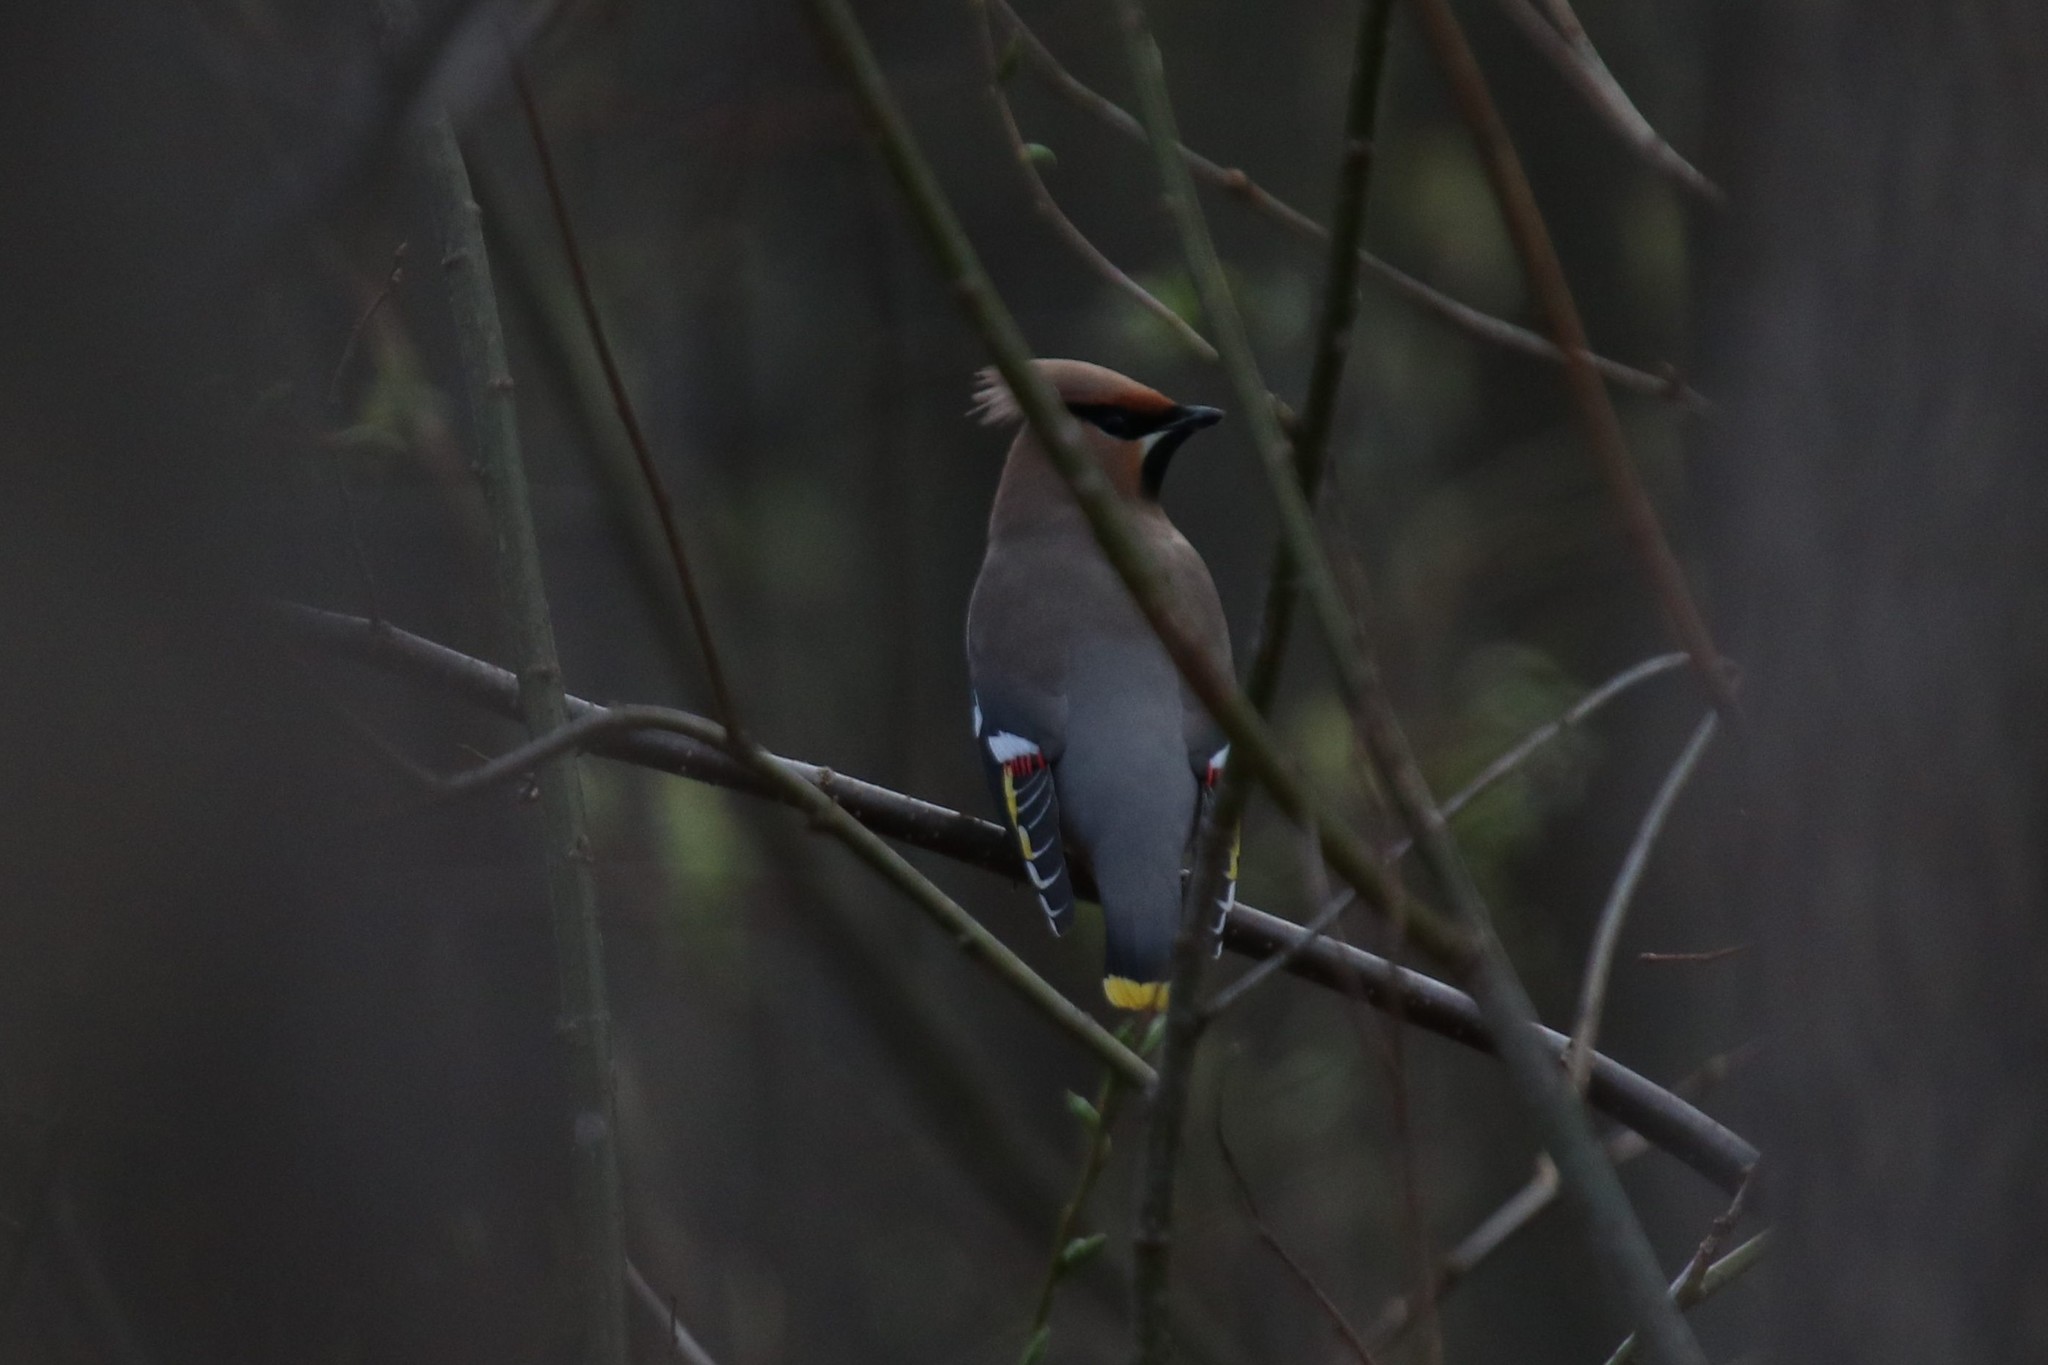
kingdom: Animalia
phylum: Chordata
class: Aves
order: Passeriformes
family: Bombycillidae
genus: Bombycilla
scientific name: Bombycilla garrulus
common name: Bohemian waxwing
